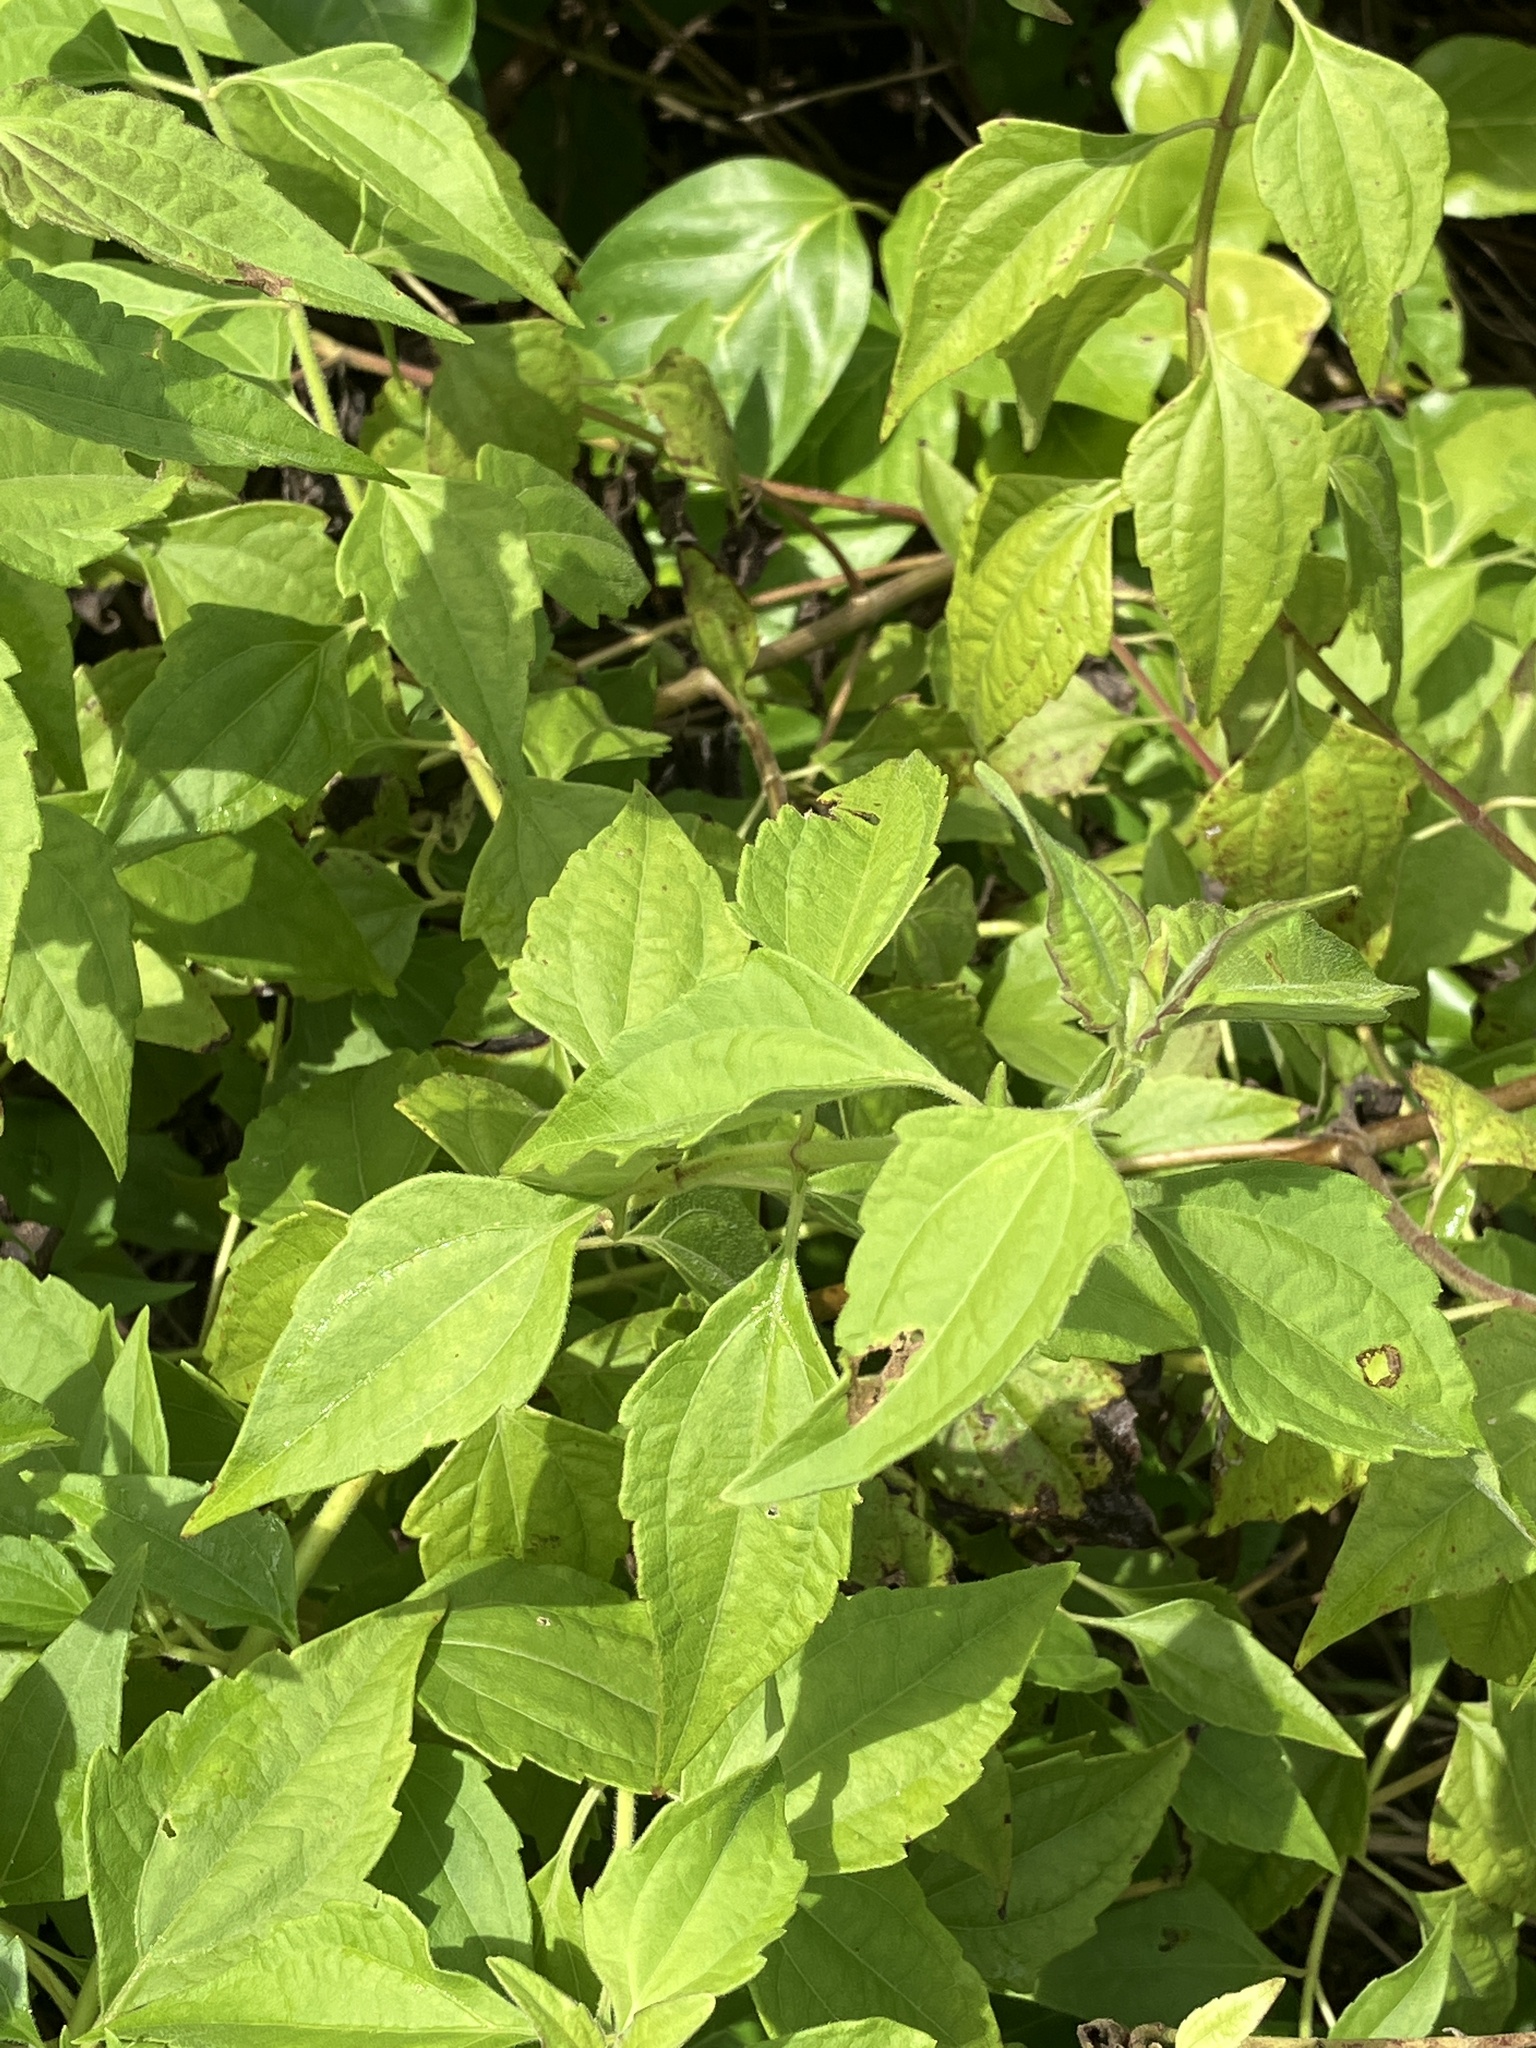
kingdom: Plantae
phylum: Tracheophyta
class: Magnoliopsida
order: Asterales
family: Asteraceae
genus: Chromolaena
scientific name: Chromolaena odorata
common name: Siamweed
